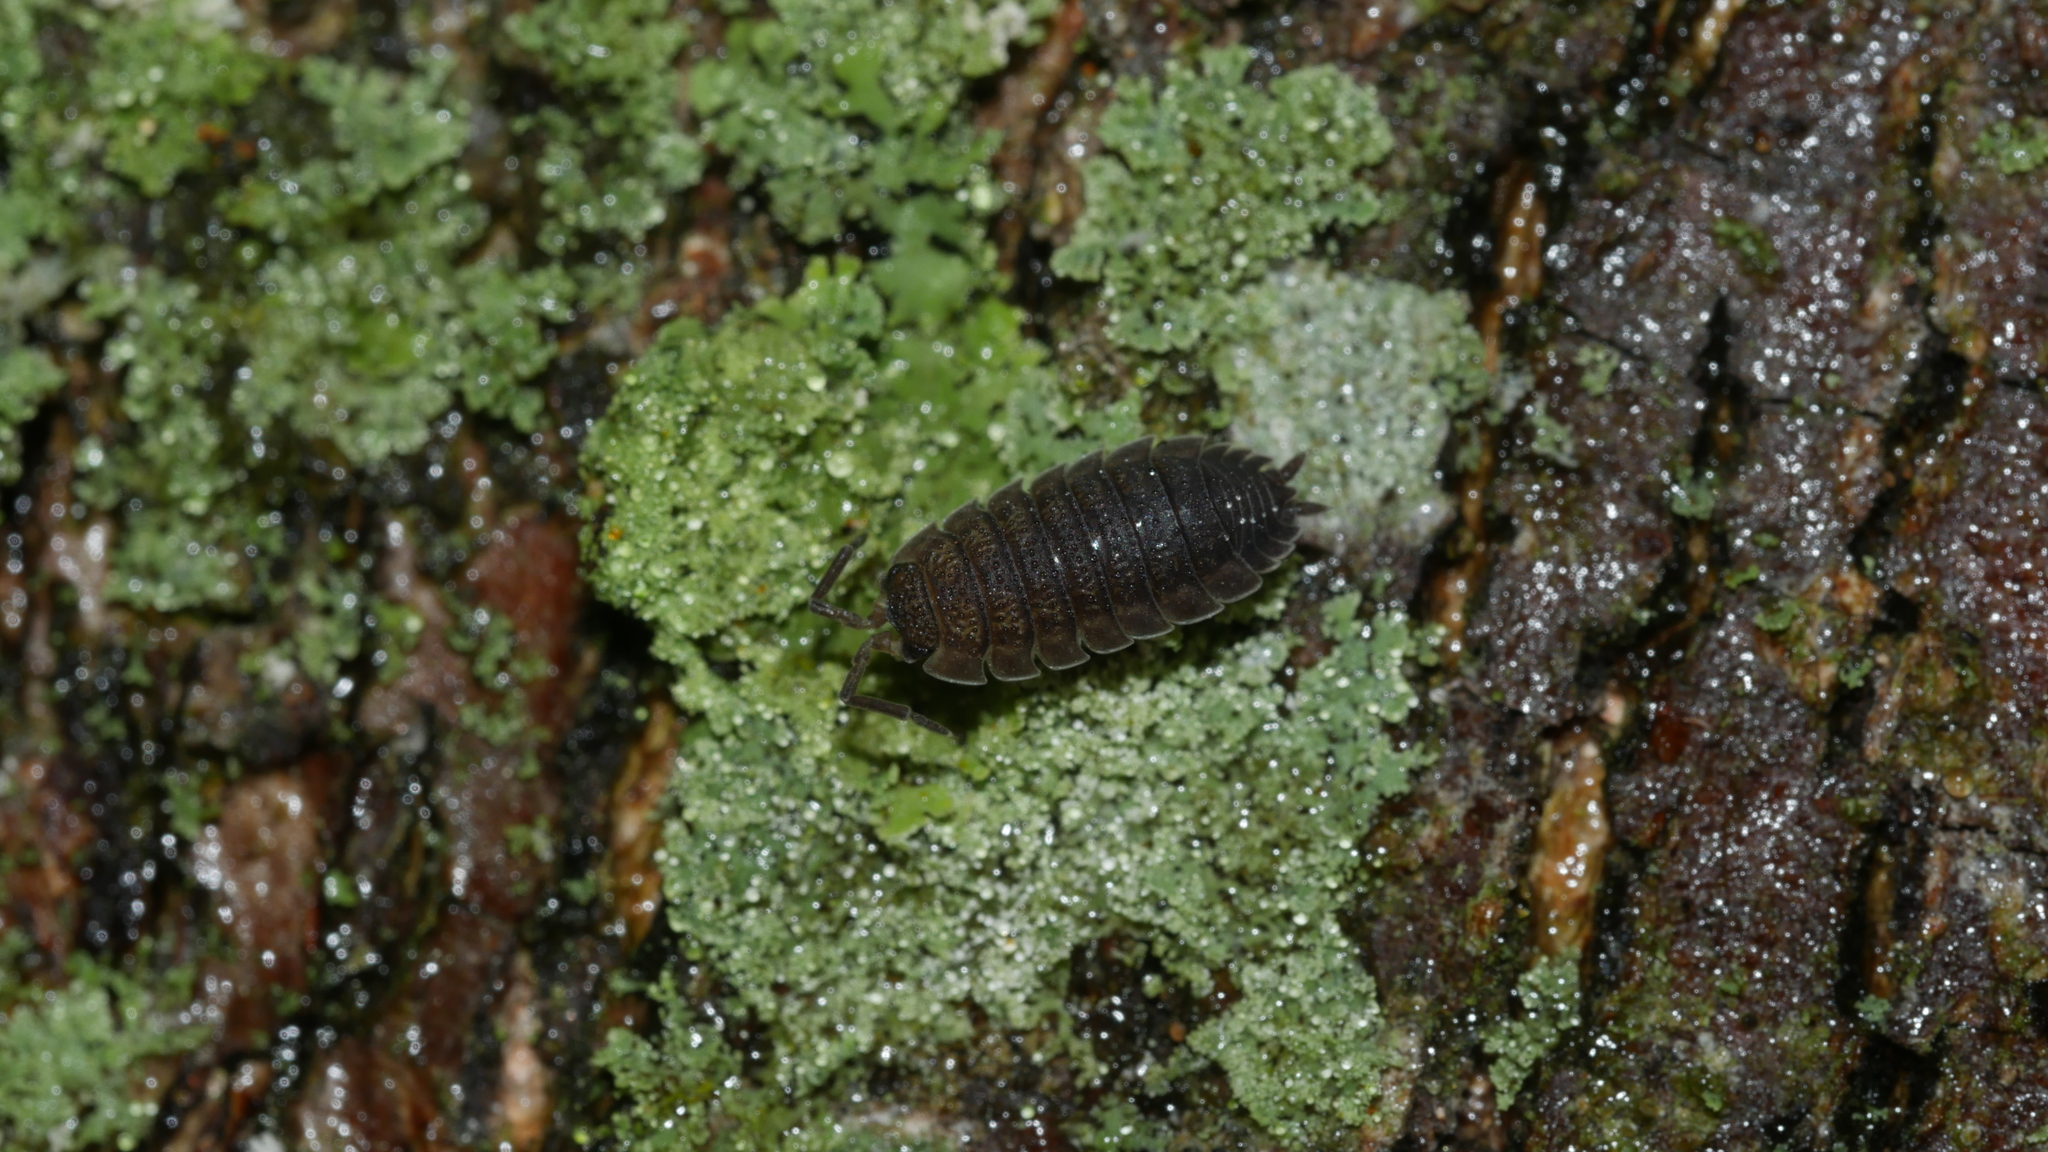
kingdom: Animalia
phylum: Arthropoda
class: Malacostraca
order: Isopoda
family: Porcellionidae
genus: Porcellio
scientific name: Porcellio scaber
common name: Common rough woodlouse
